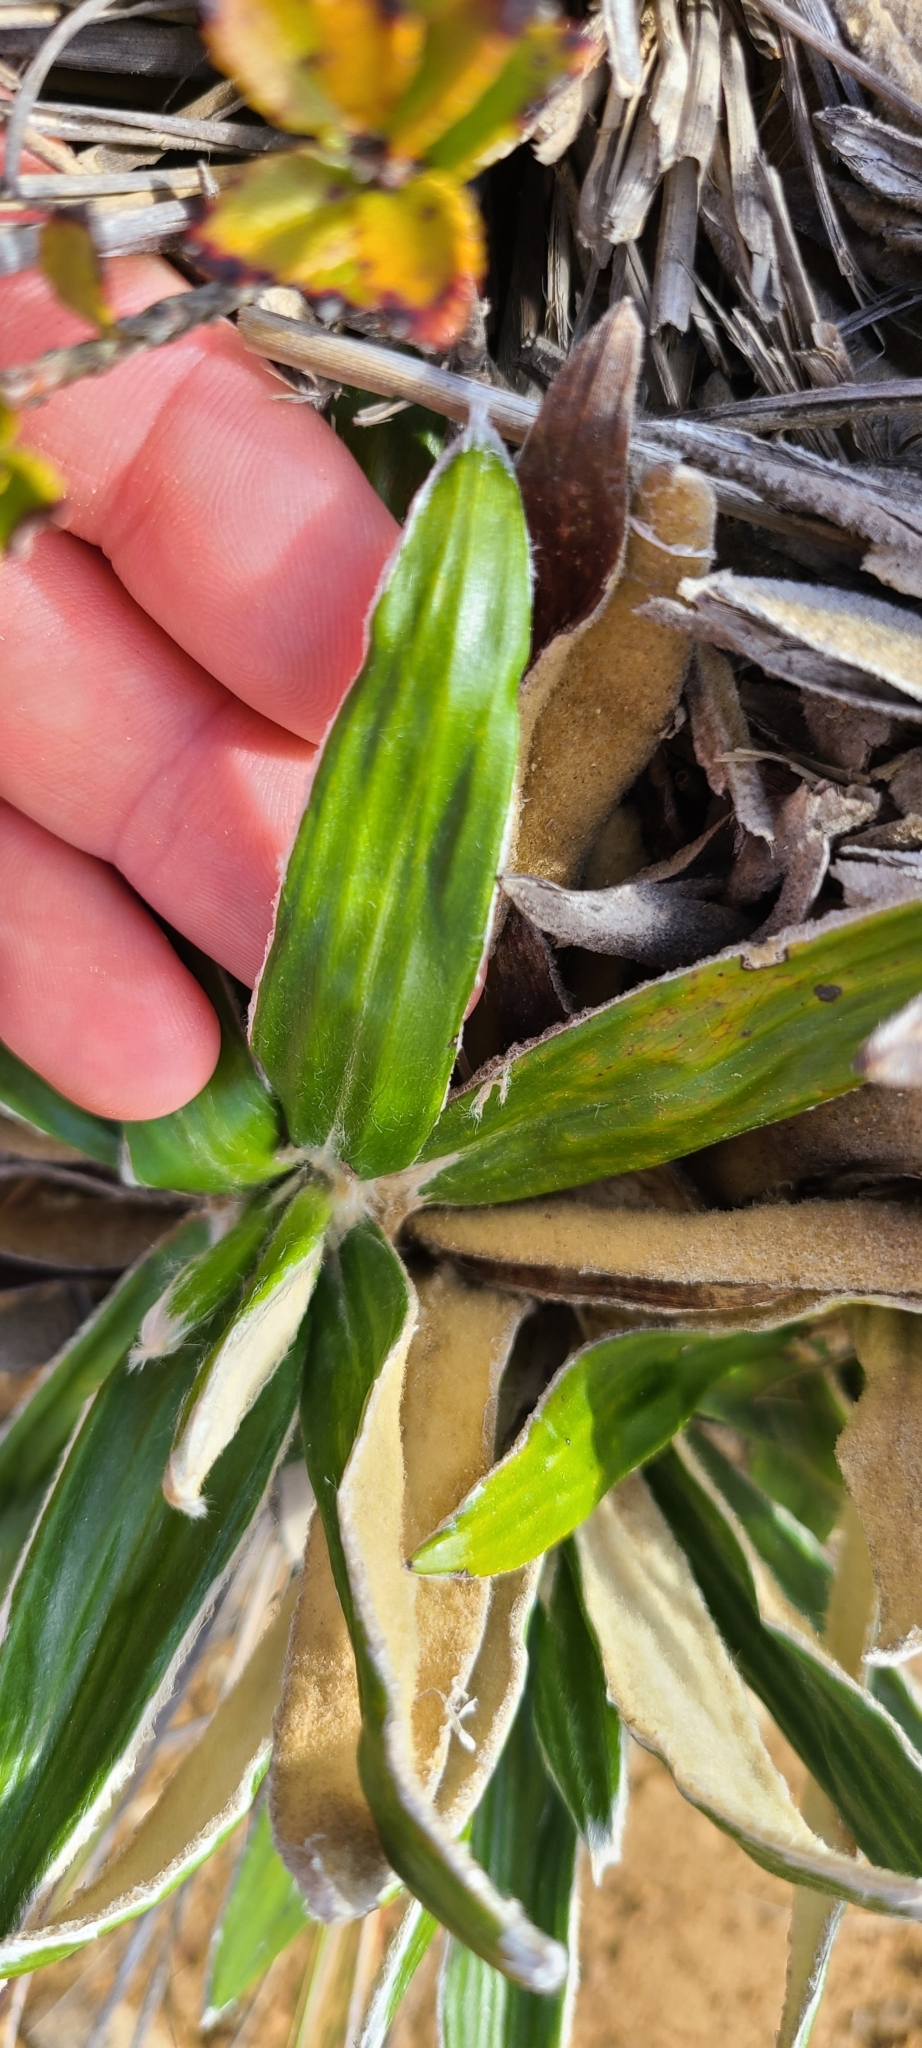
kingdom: Plantae
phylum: Tracheophyta
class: Magnoliopsida
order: Asterales
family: Asteraceae
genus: Celmisia
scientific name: Celmisia spectabilis
